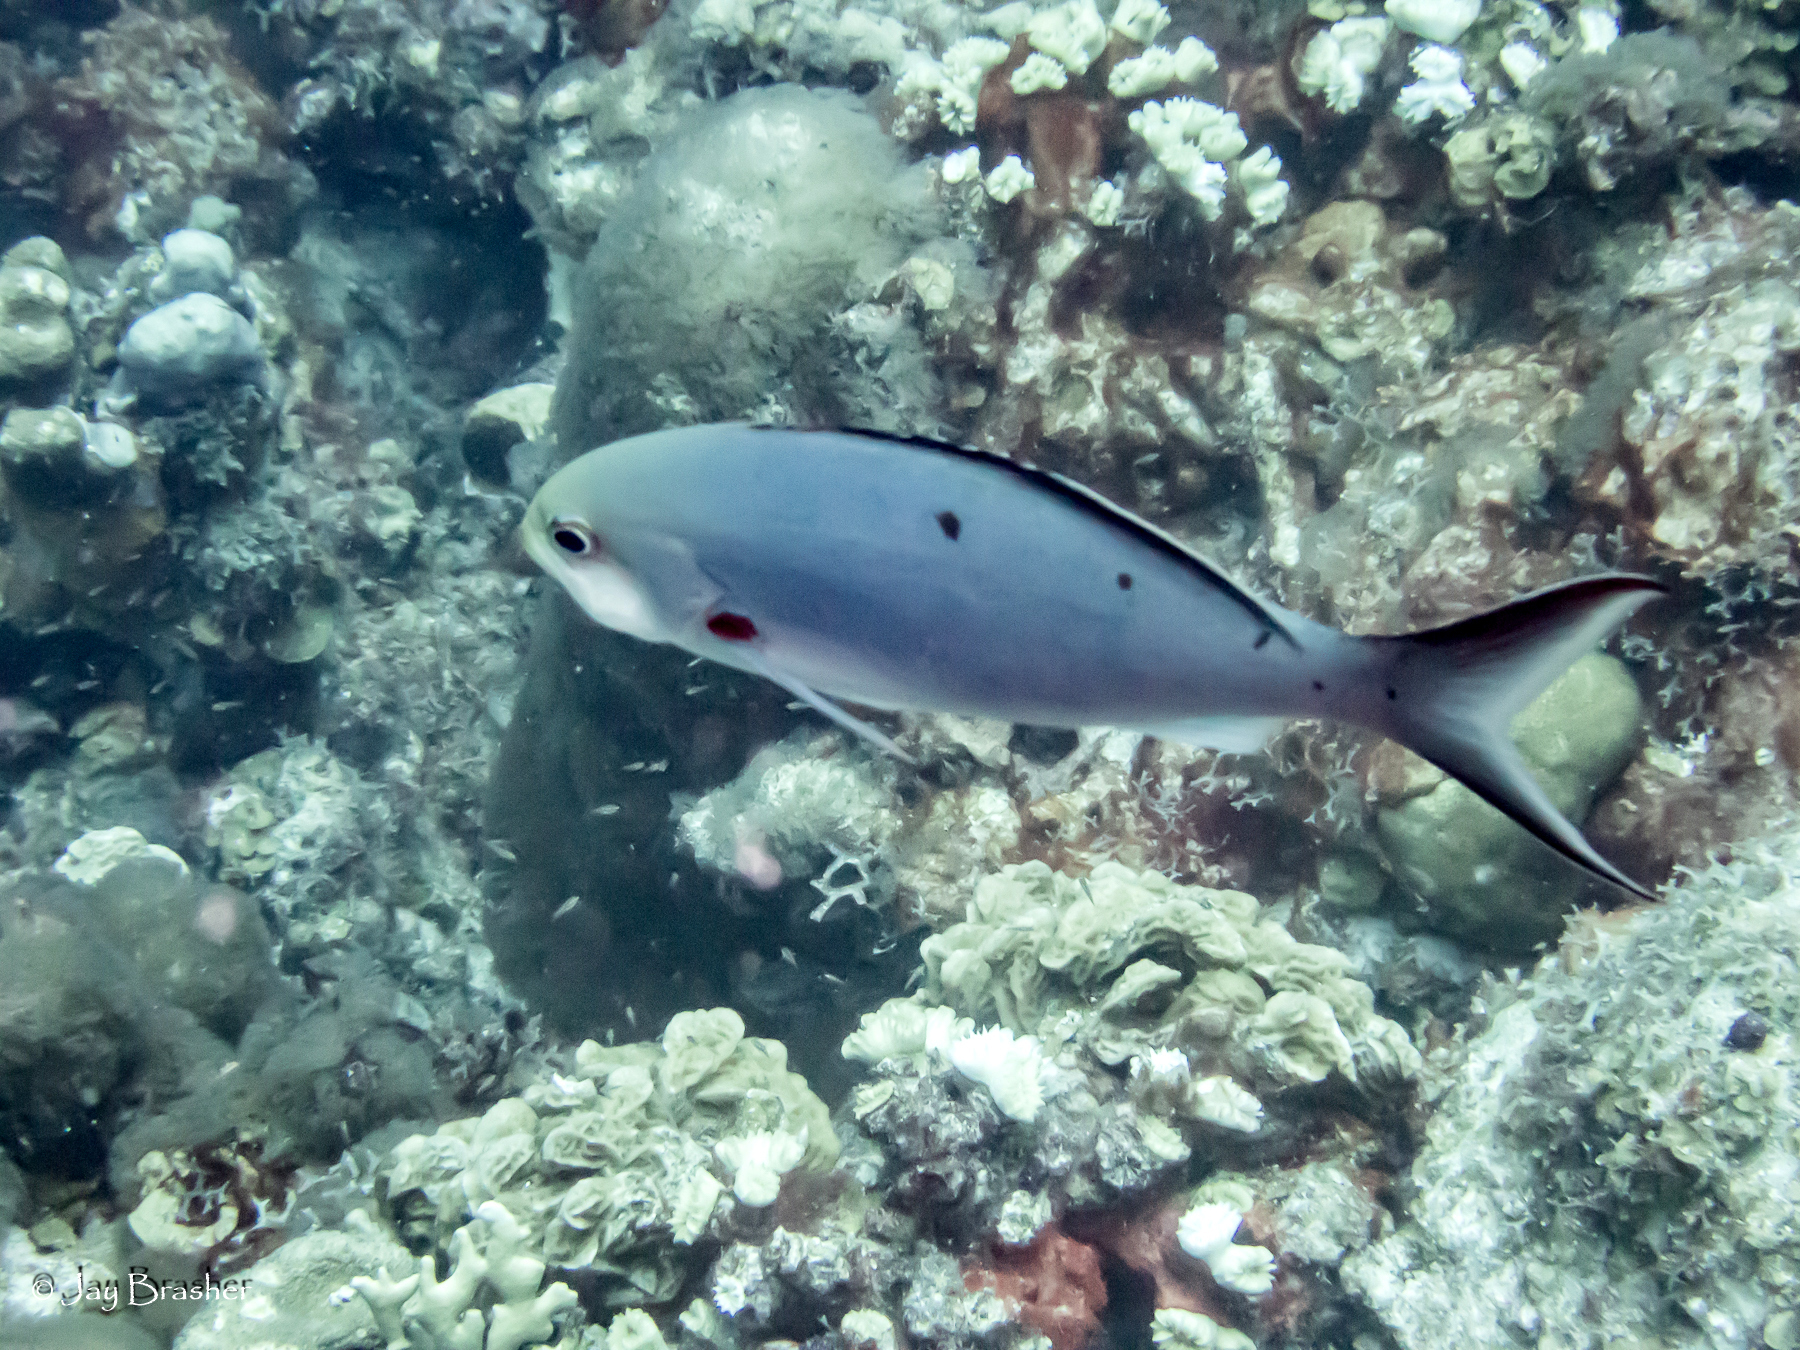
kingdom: Animalia
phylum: Chordata
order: Perciformes
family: Serranidae
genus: Paranthias
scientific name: Paranthias furcifer
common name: Creole-fish
